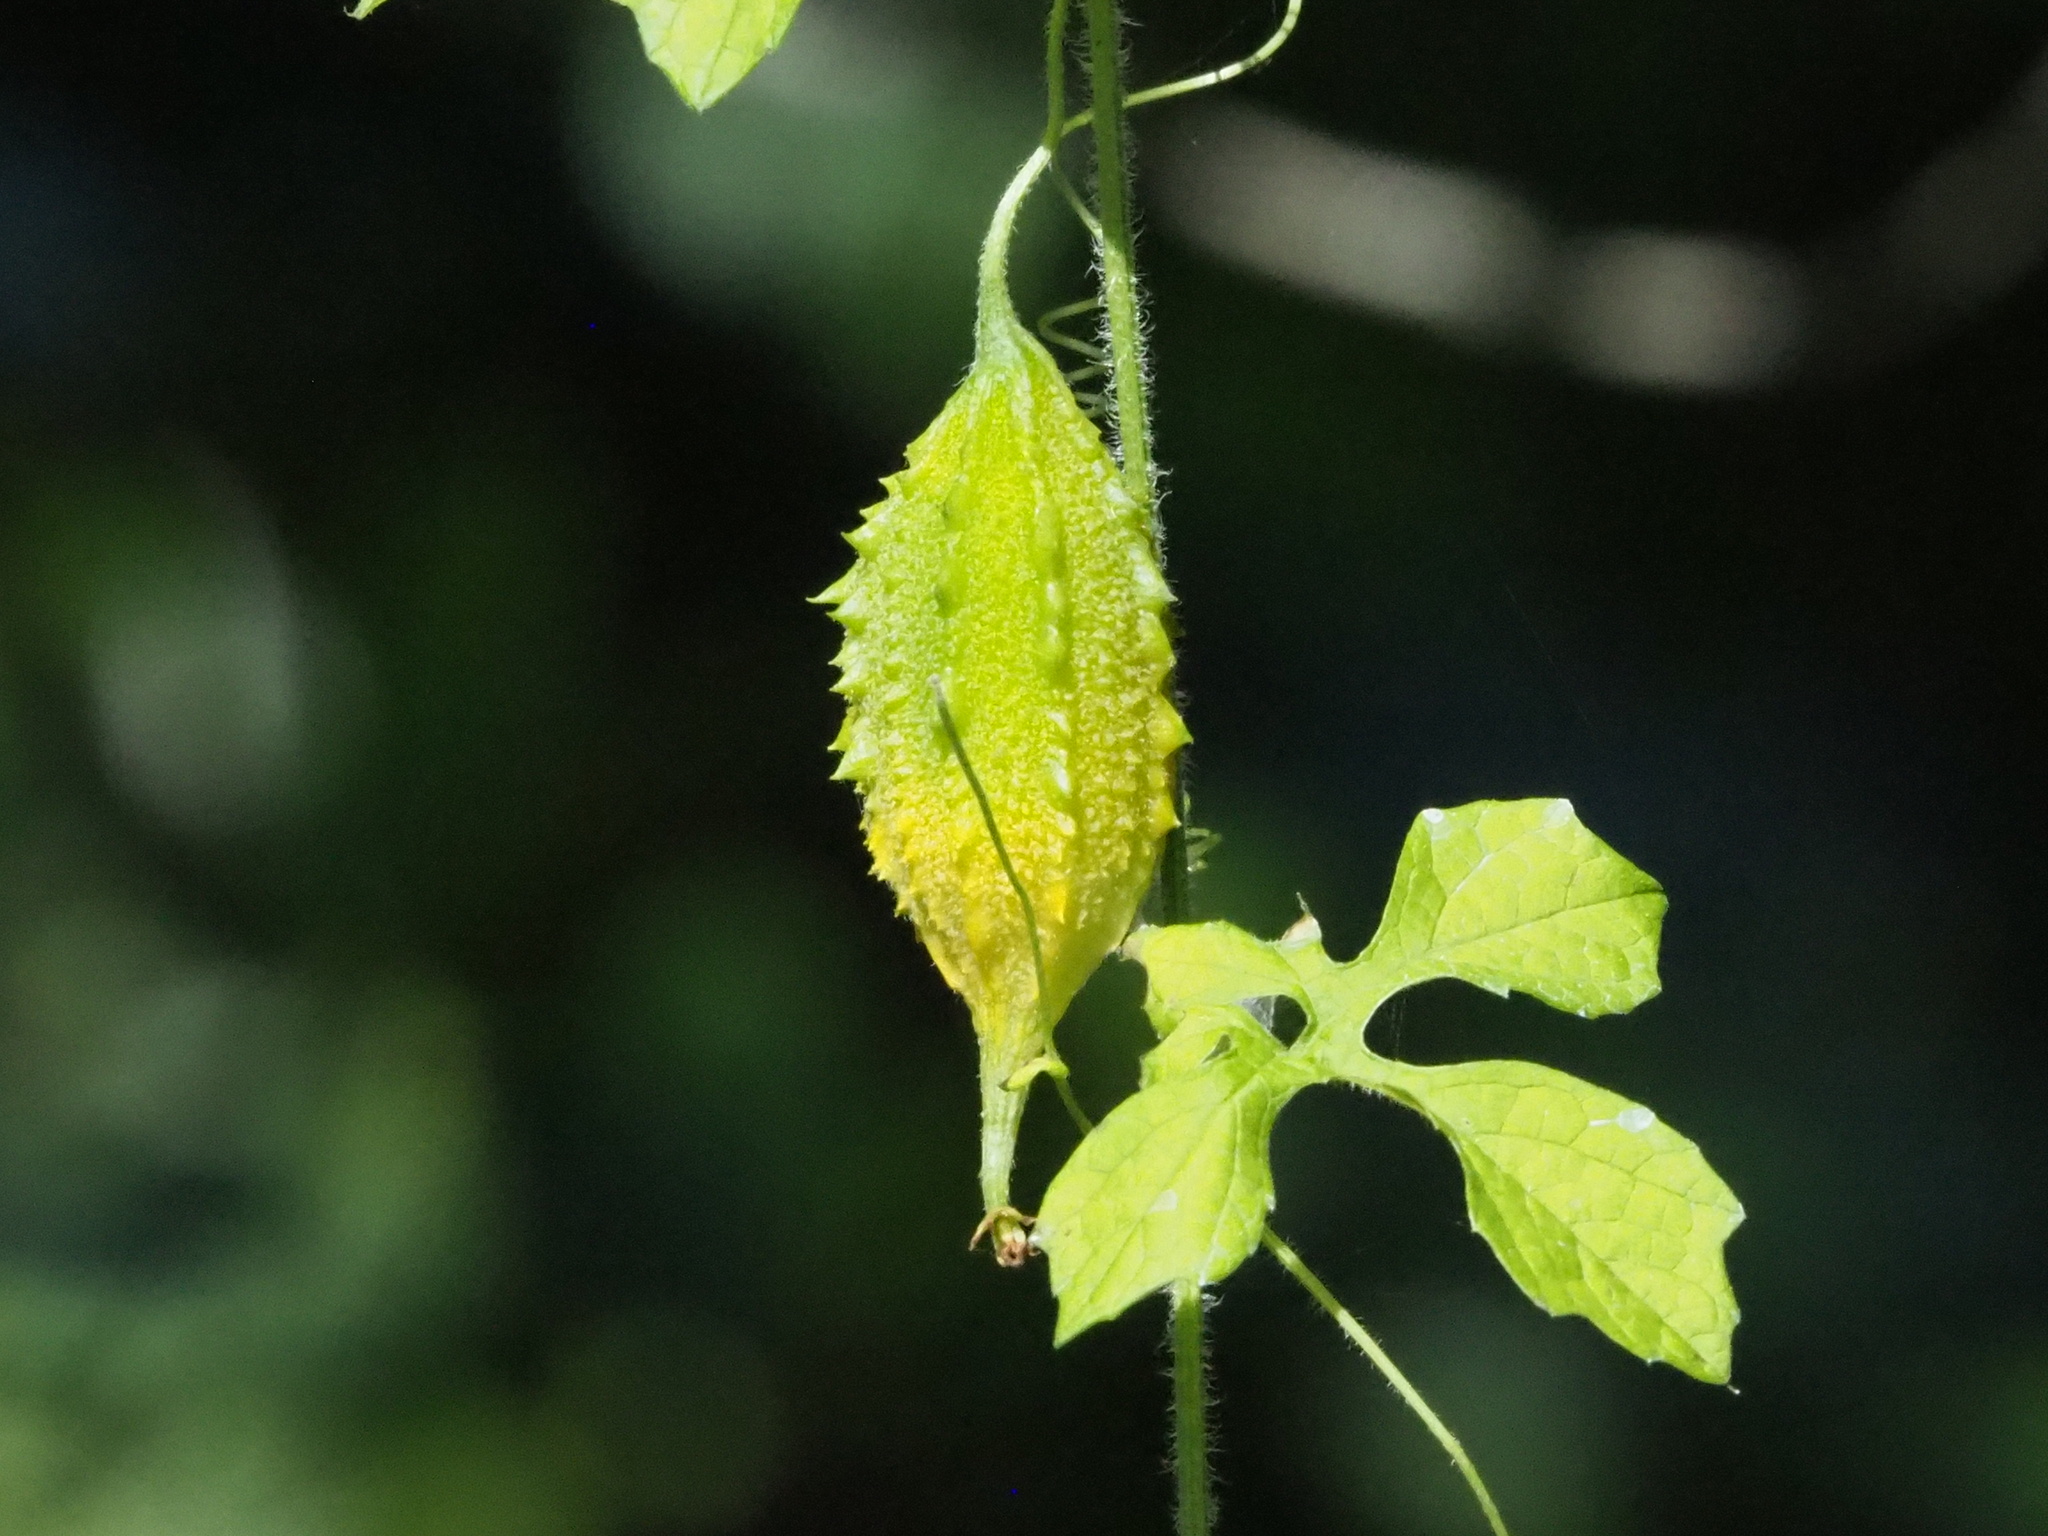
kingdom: Plantae
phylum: Tracheophyta
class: Magnoliopsida
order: Cucurbitales
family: Cucurbitaceae
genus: Momordica
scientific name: Momordica charantia
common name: Balsampear
